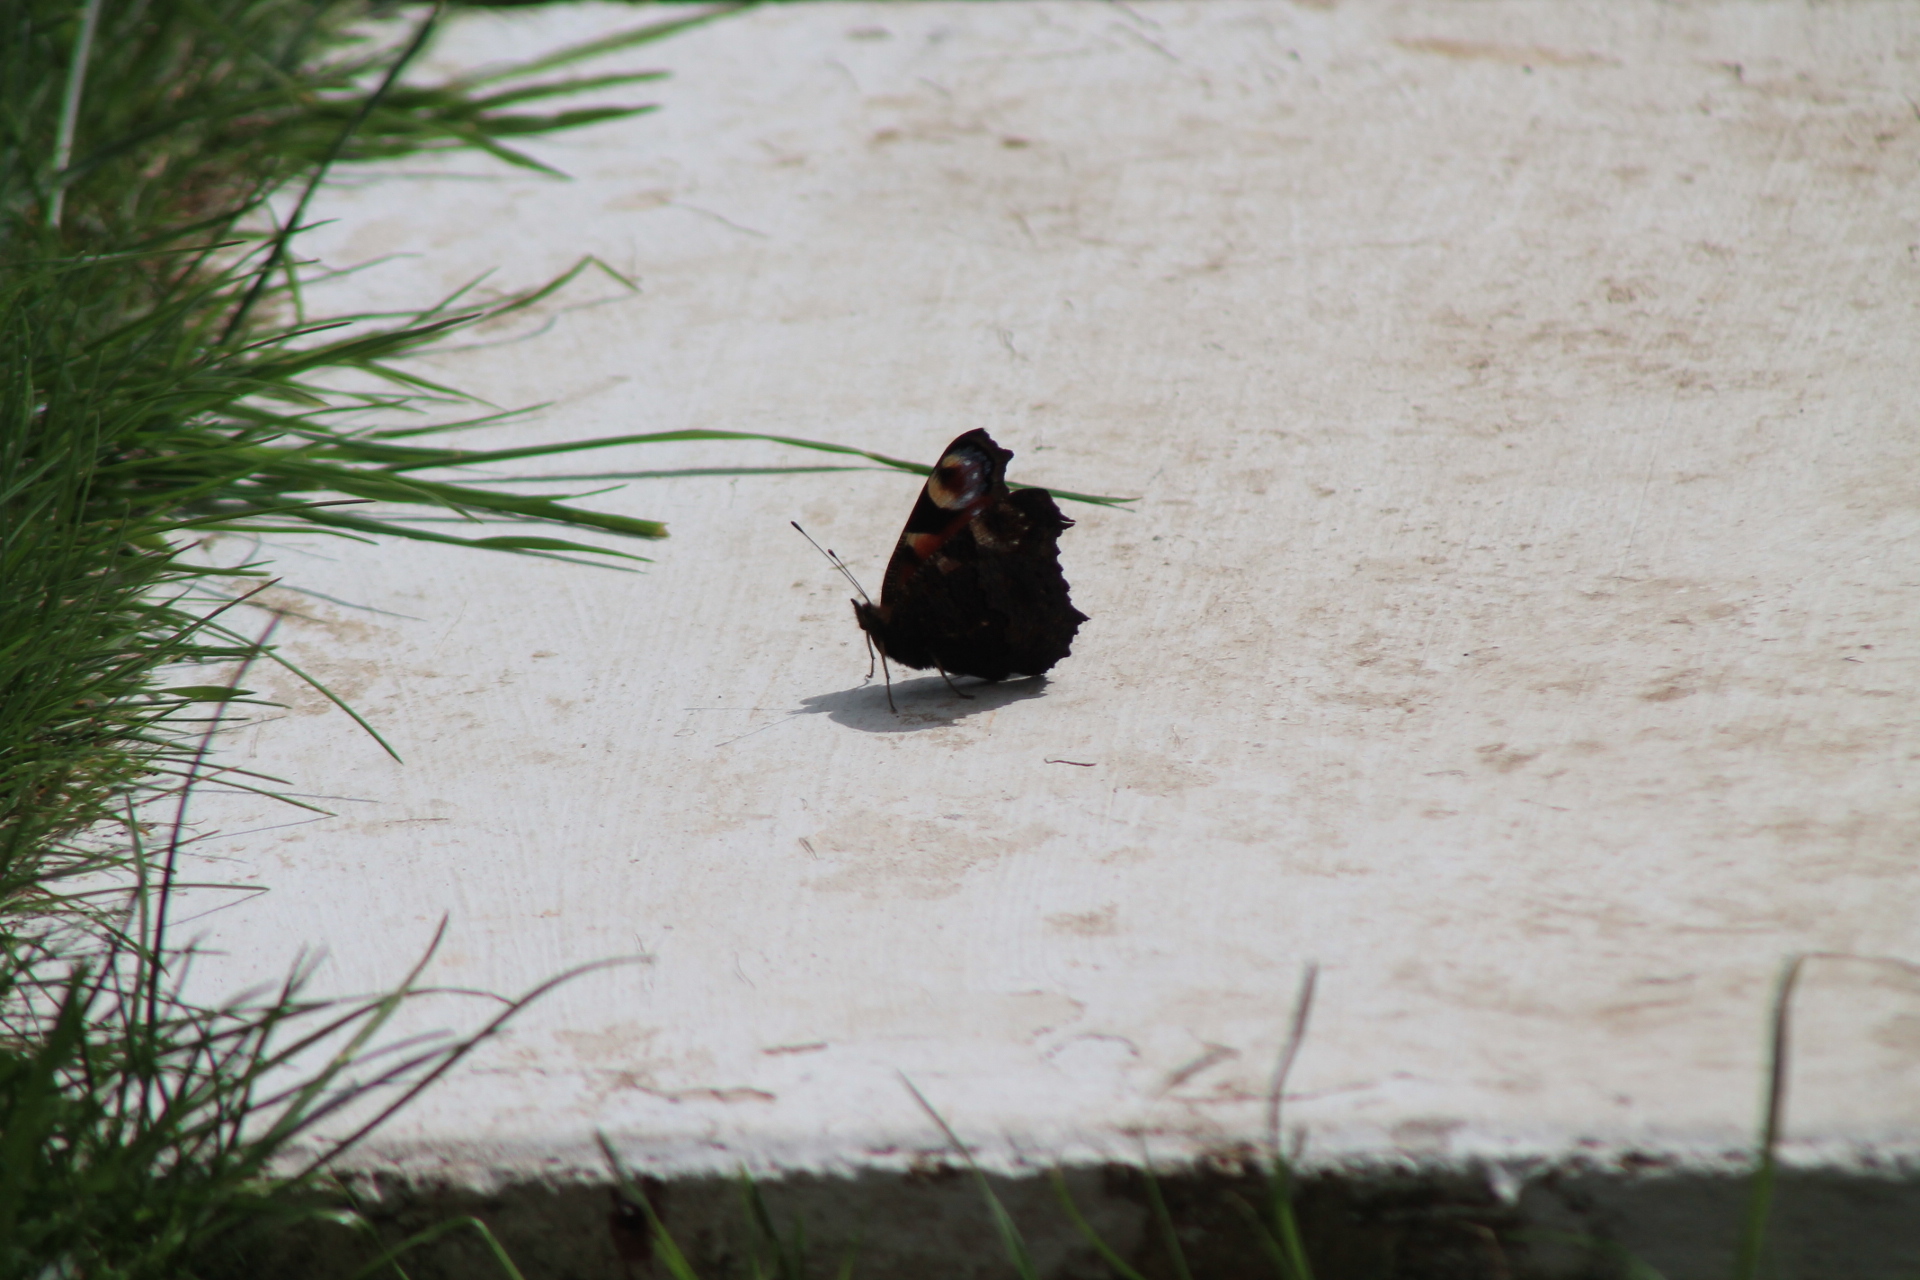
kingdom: Animalia
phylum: Arthropoda
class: Insecta
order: Lepidoptera
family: Nymphalidae
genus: Aglais
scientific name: Aglais io
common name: Peacock
